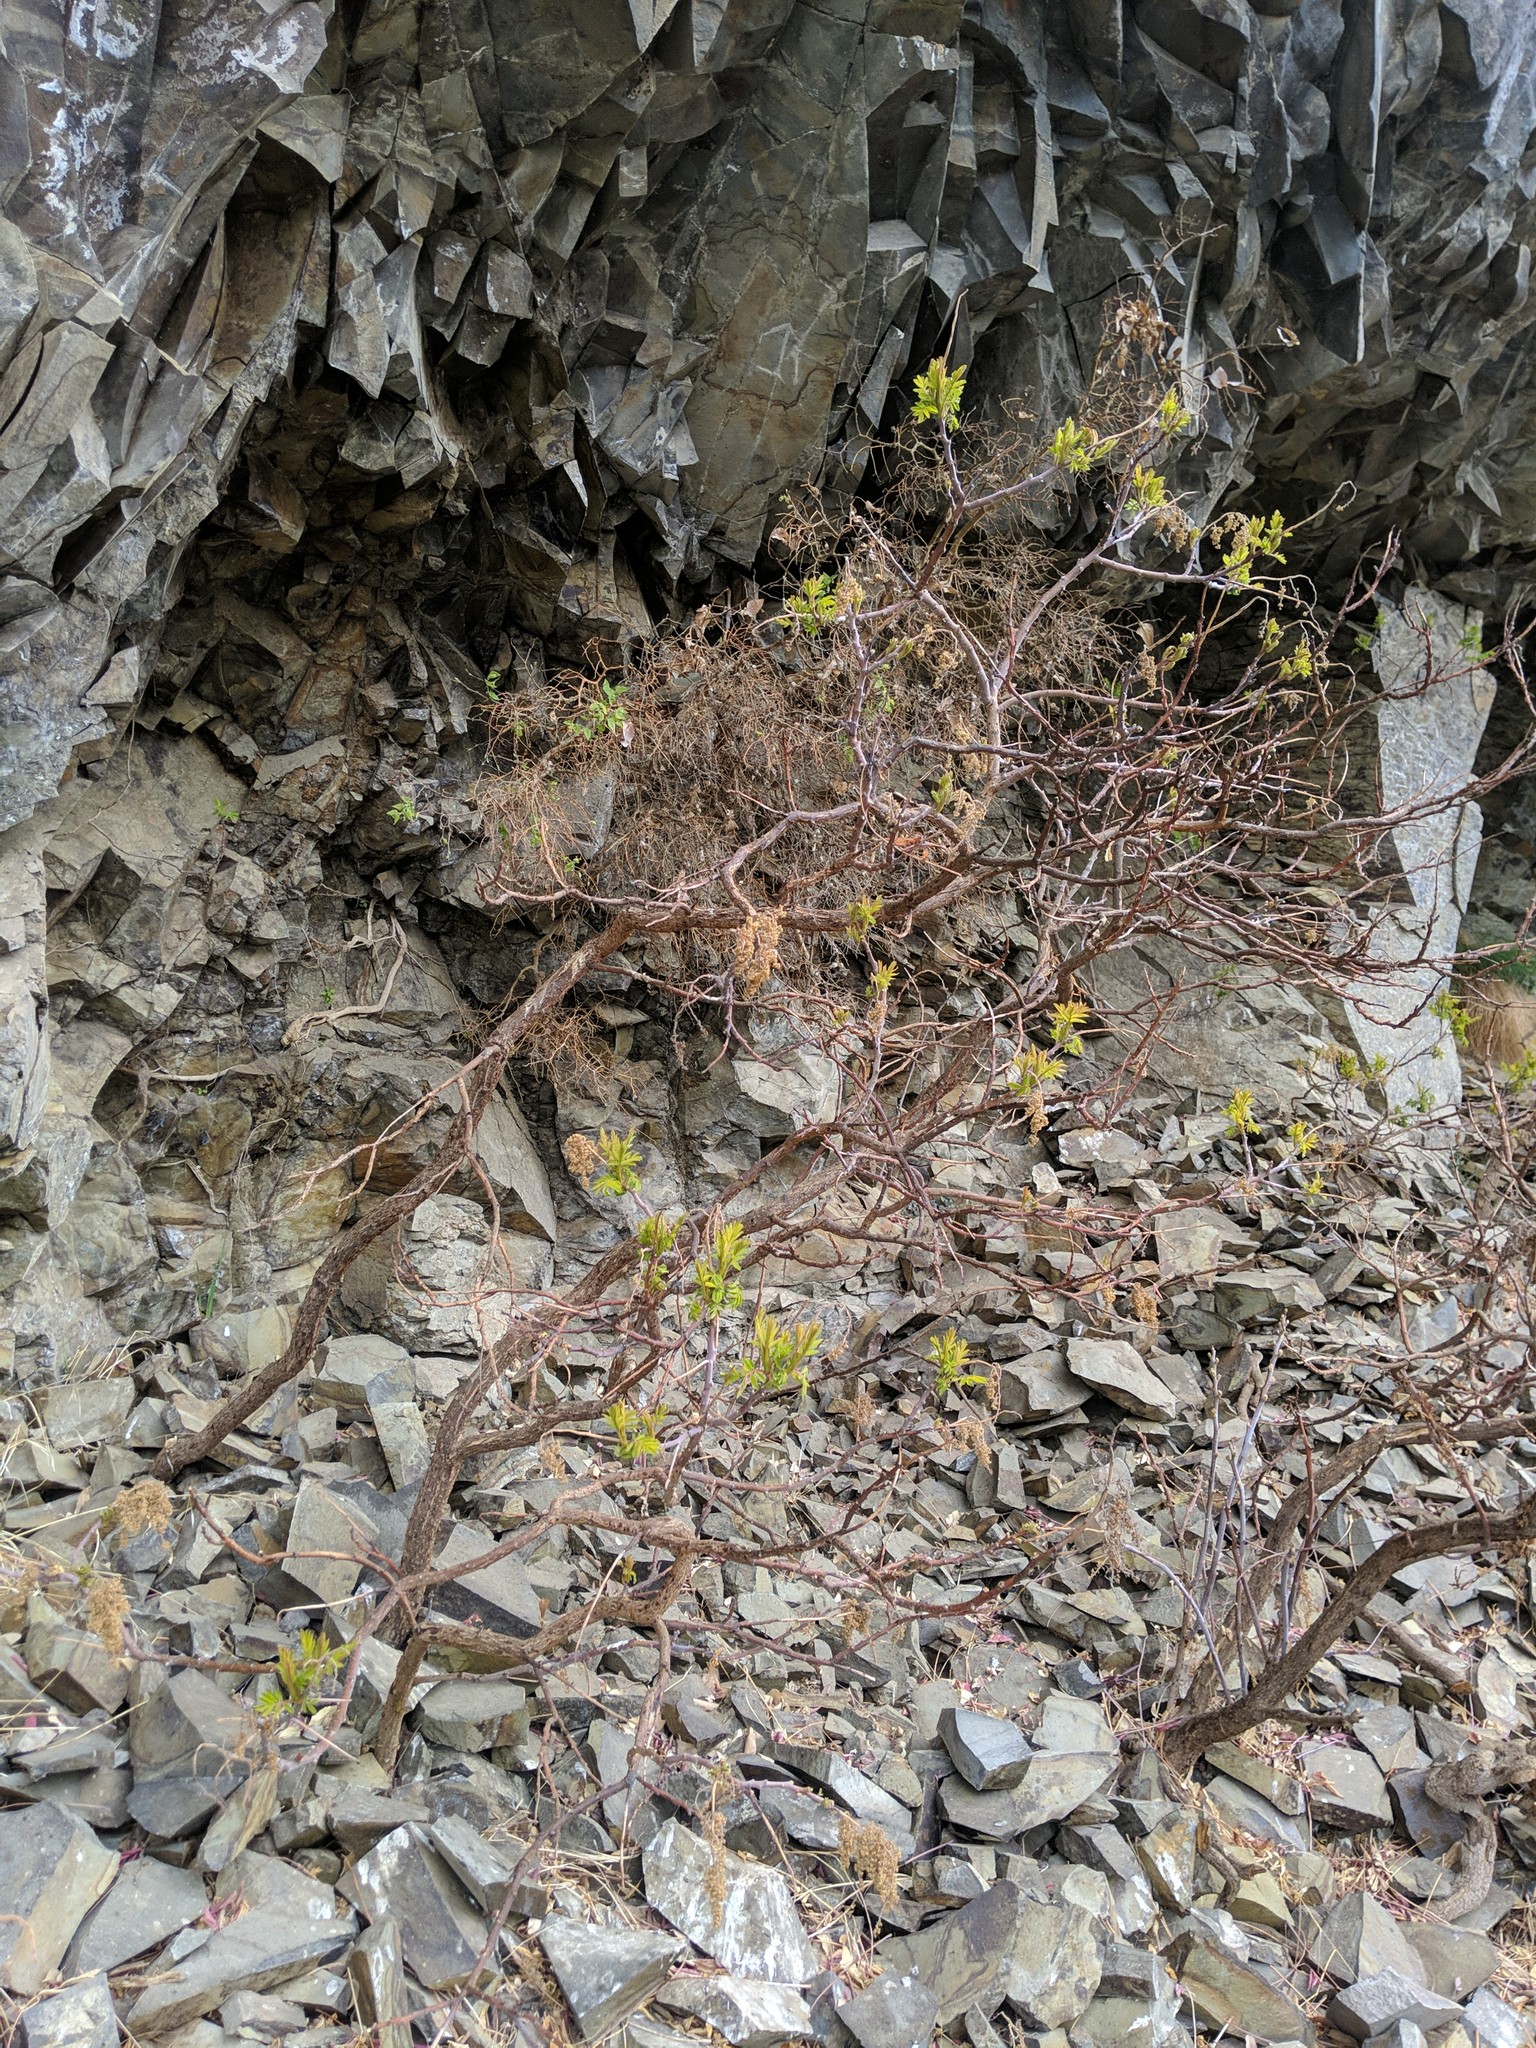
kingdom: Plantae
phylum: Tracheophyta
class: Magnoliopsida
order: Sapindales
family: Anacardiaceae
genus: Rhus
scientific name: Rhus glabra
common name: Scarlet sumac
